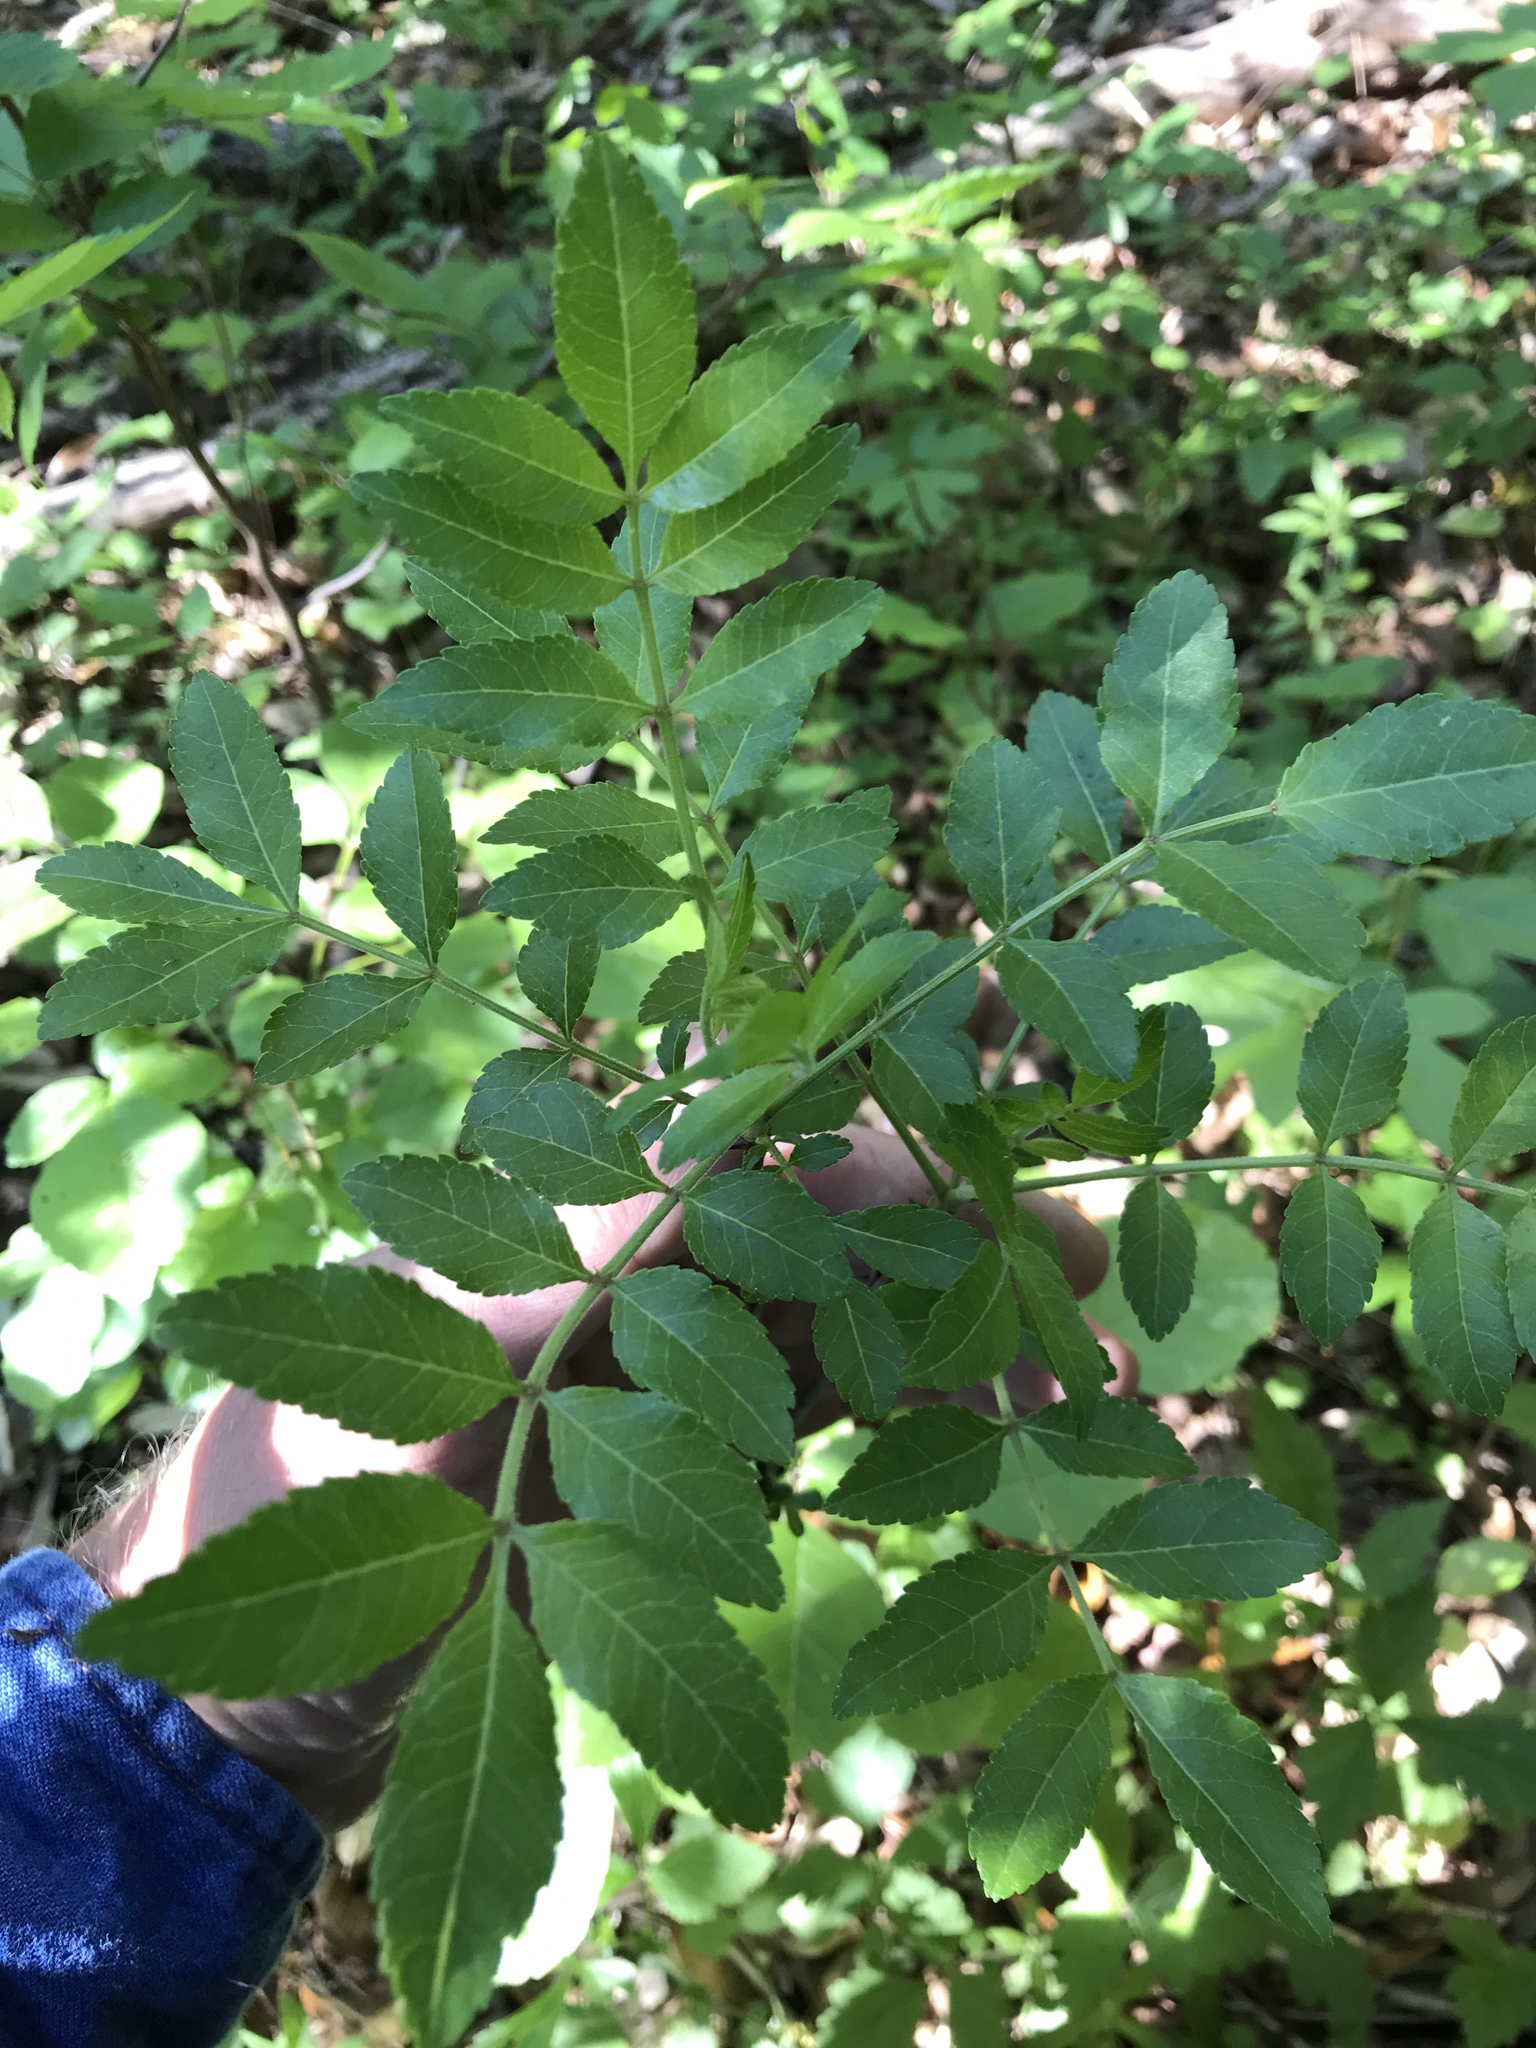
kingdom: Plantae
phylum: Tracheophyta
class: Magnoliopsida
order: Sapindales
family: Rutaceae
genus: Zanthoxylum
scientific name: Zanthoxylum clava-herculis
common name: Hercules'-club
